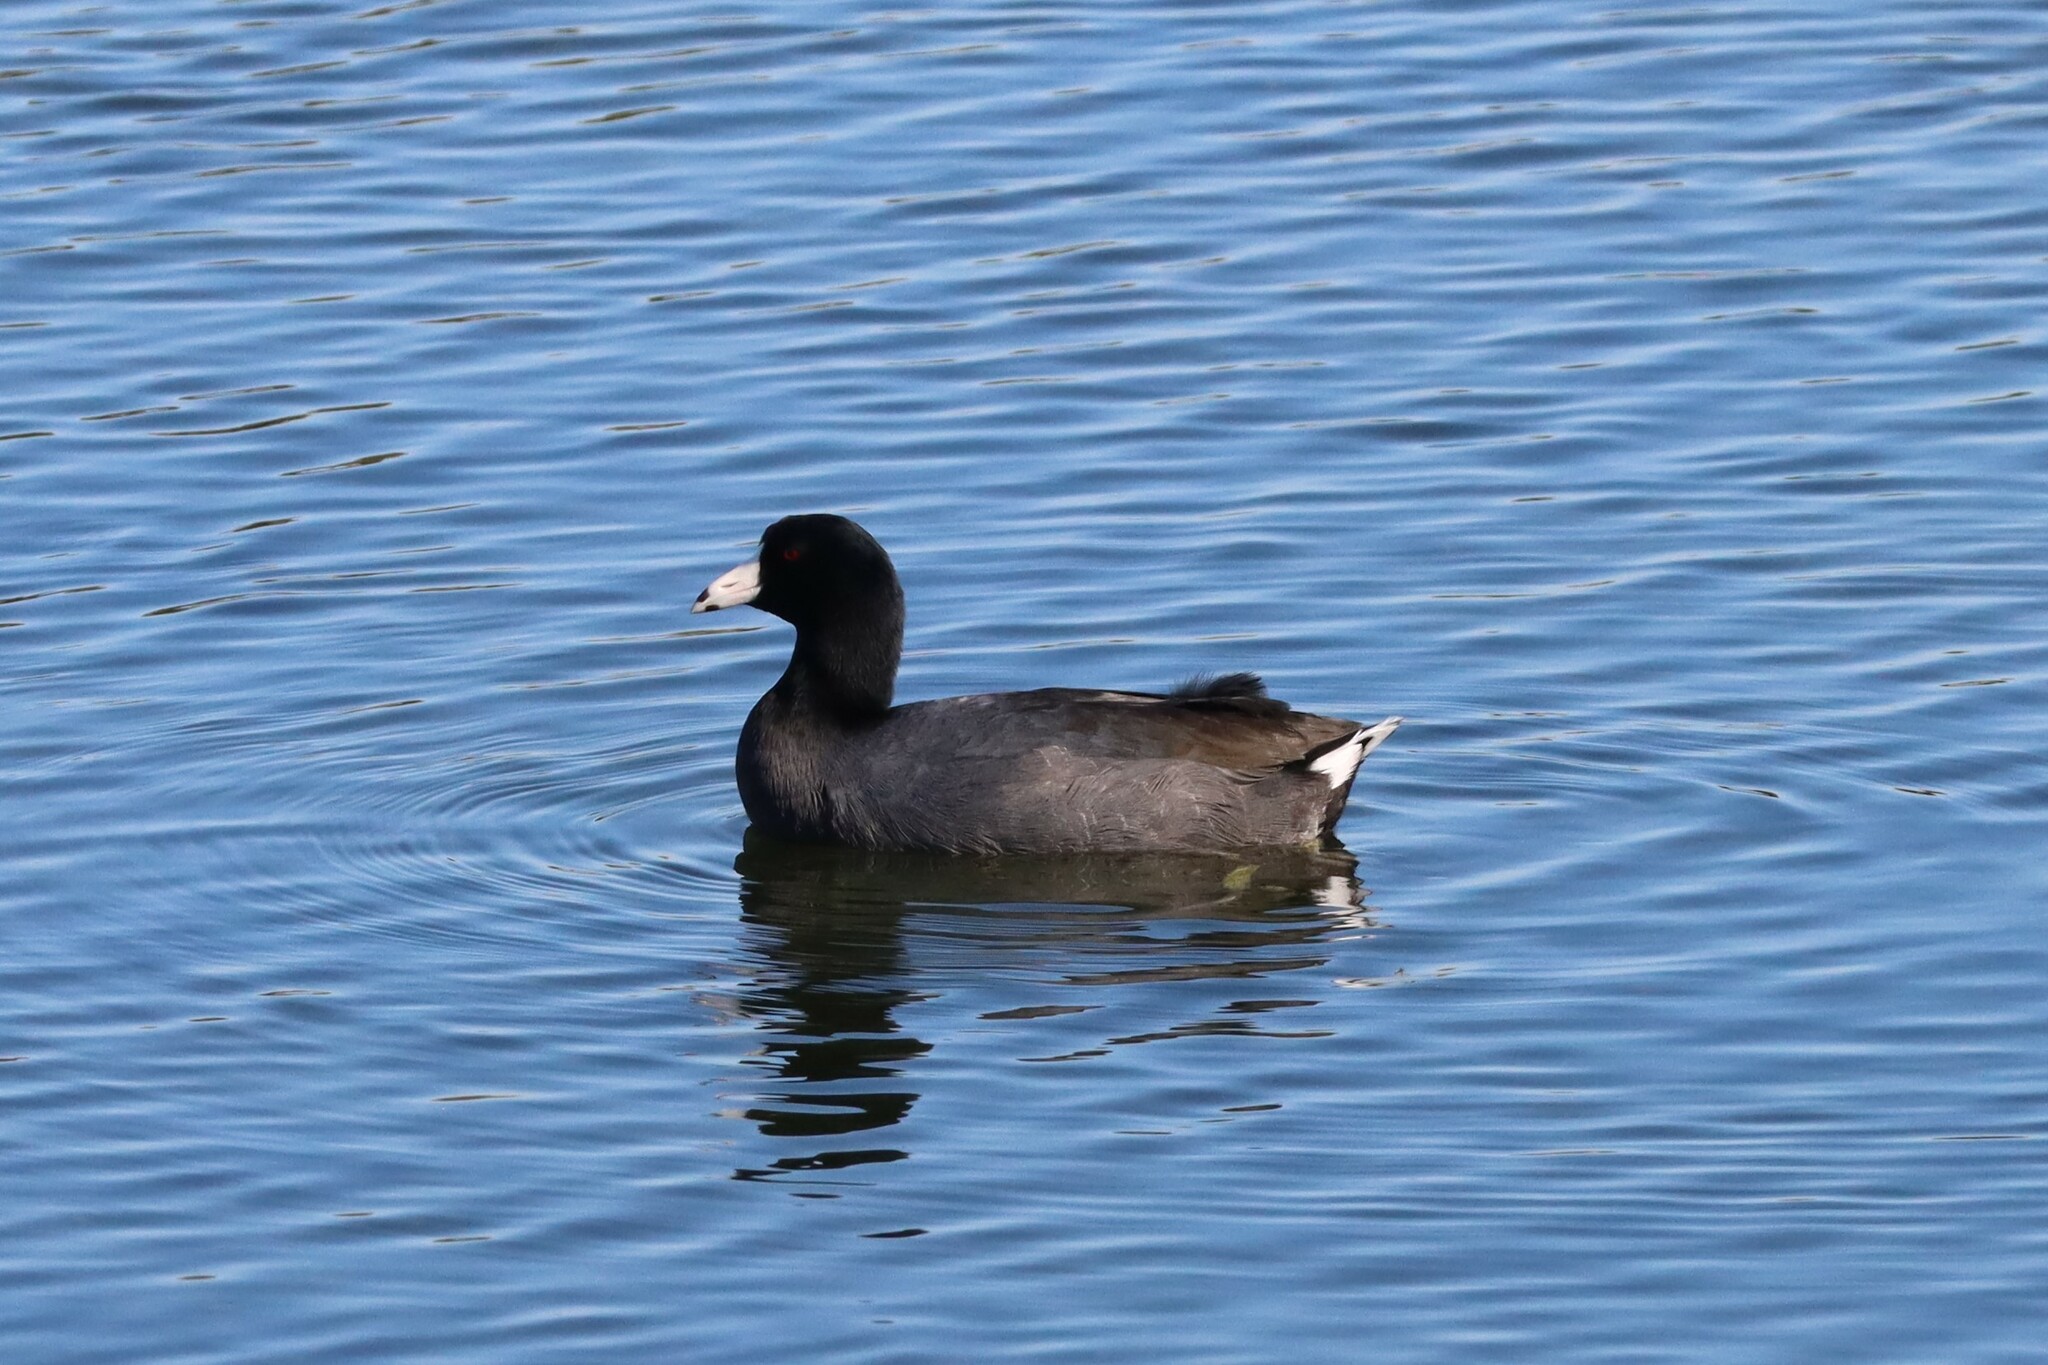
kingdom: Animalia
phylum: Chordata
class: Aves
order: Gruiformes
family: Rallidae
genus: Fulica
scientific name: Fulica americana
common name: American coot
